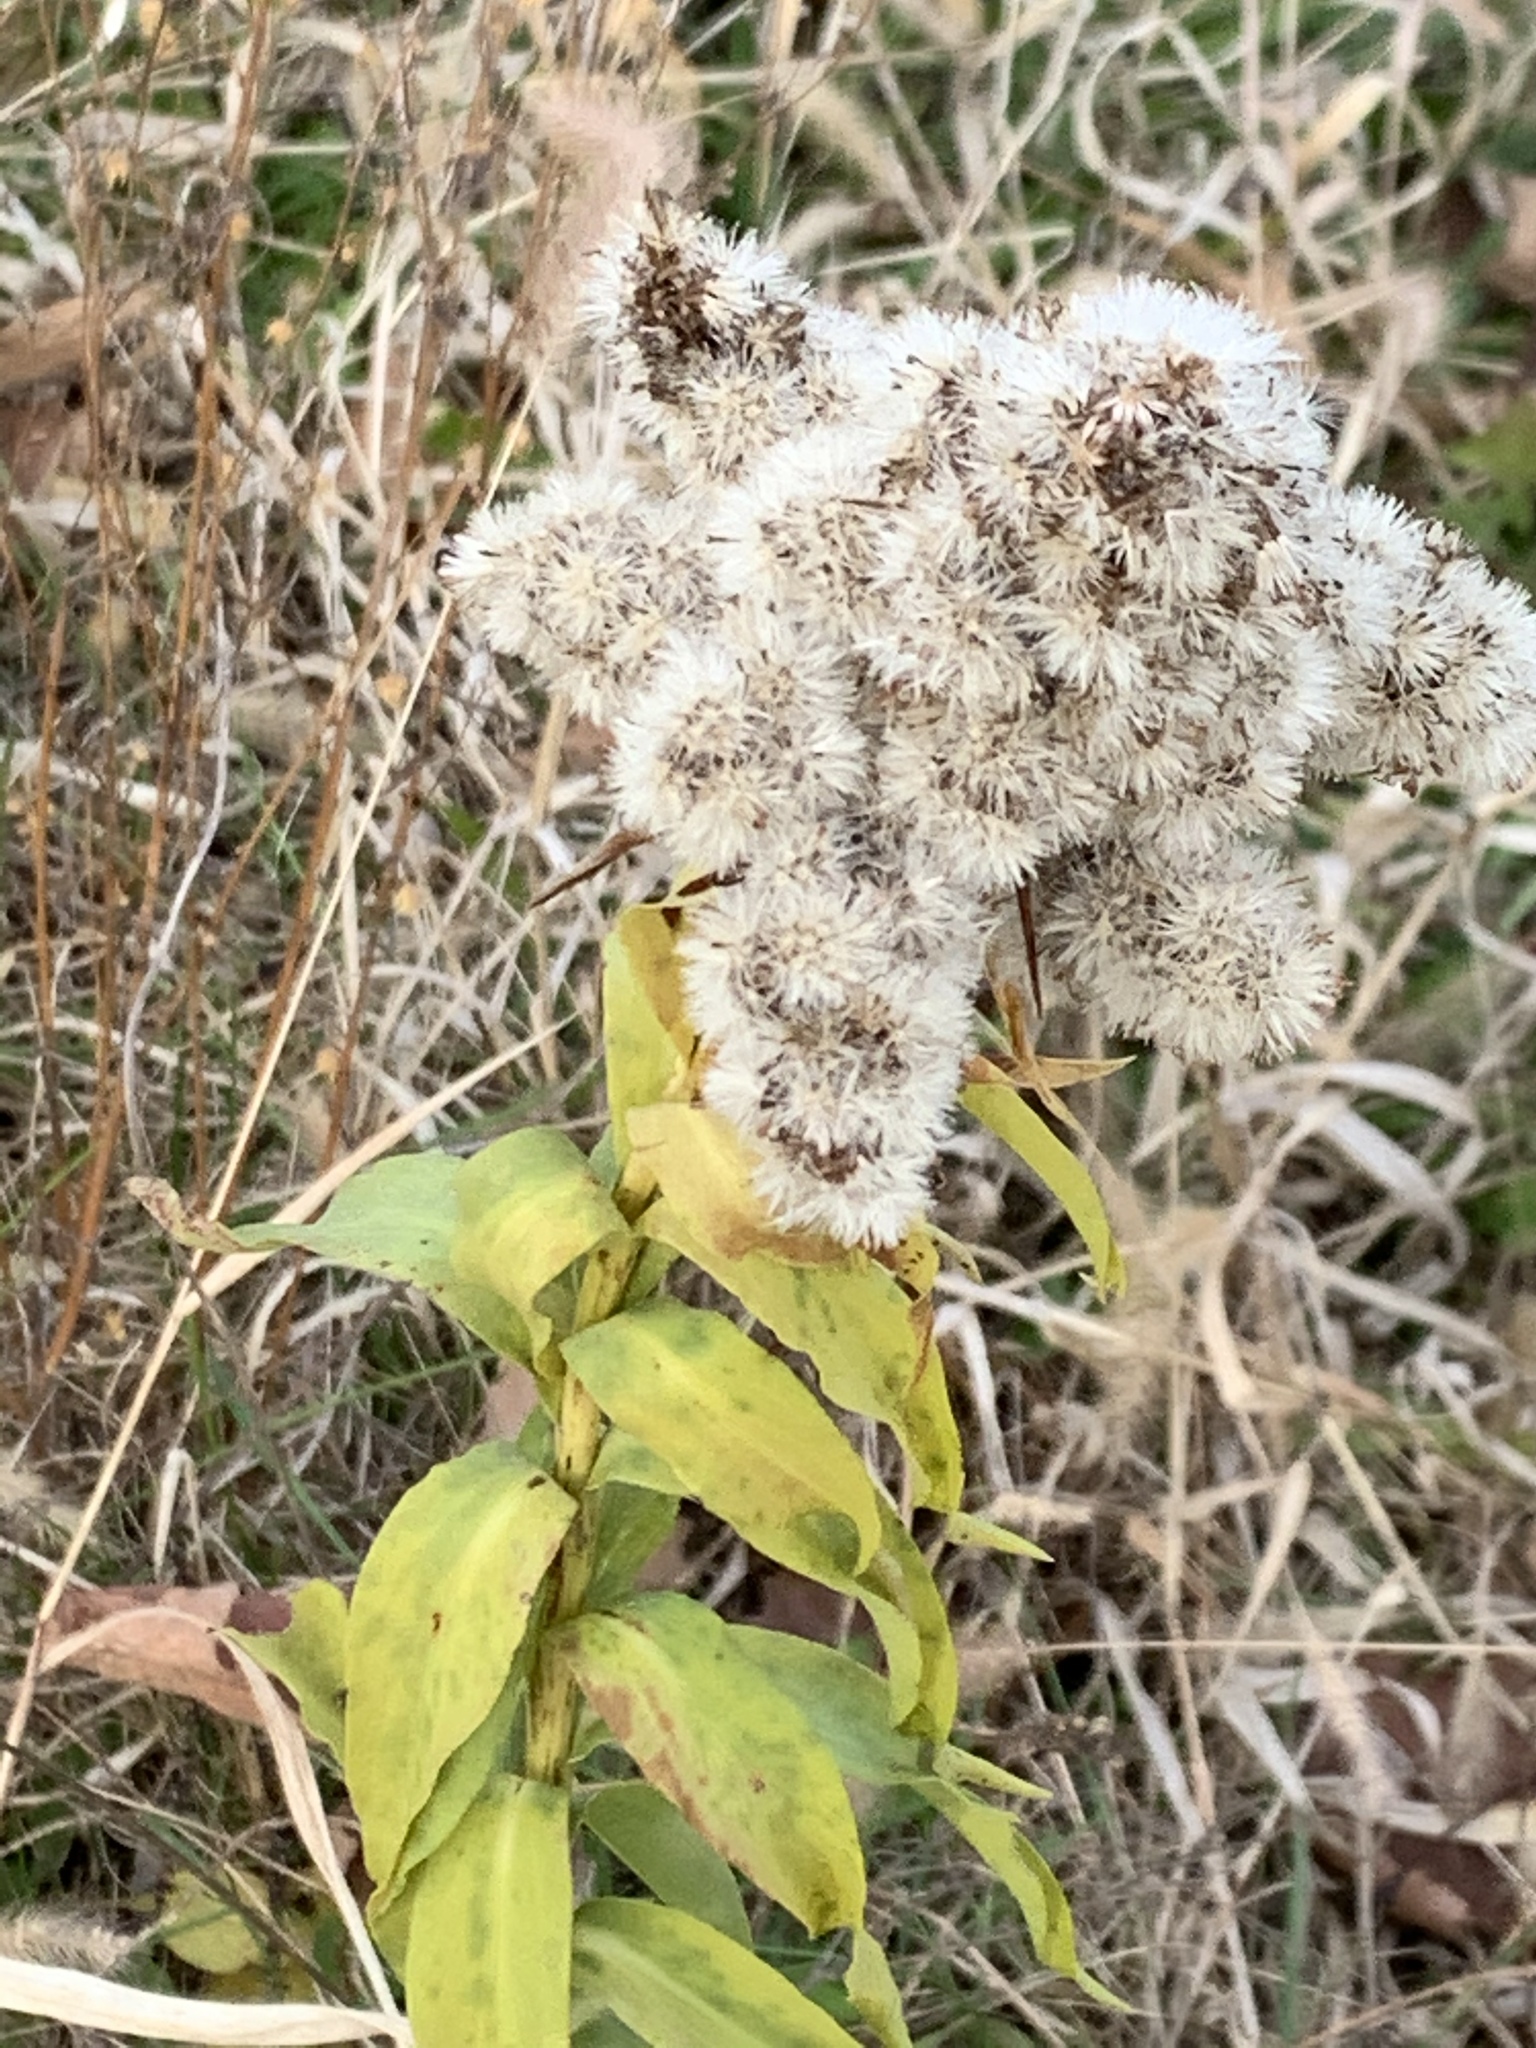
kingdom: Plantae
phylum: Tracheophyta
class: Magnoliopsida
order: Asterales
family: Asteraceae
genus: Solidago
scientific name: Solidago sempervirens
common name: Salt-marsh goldenrod
